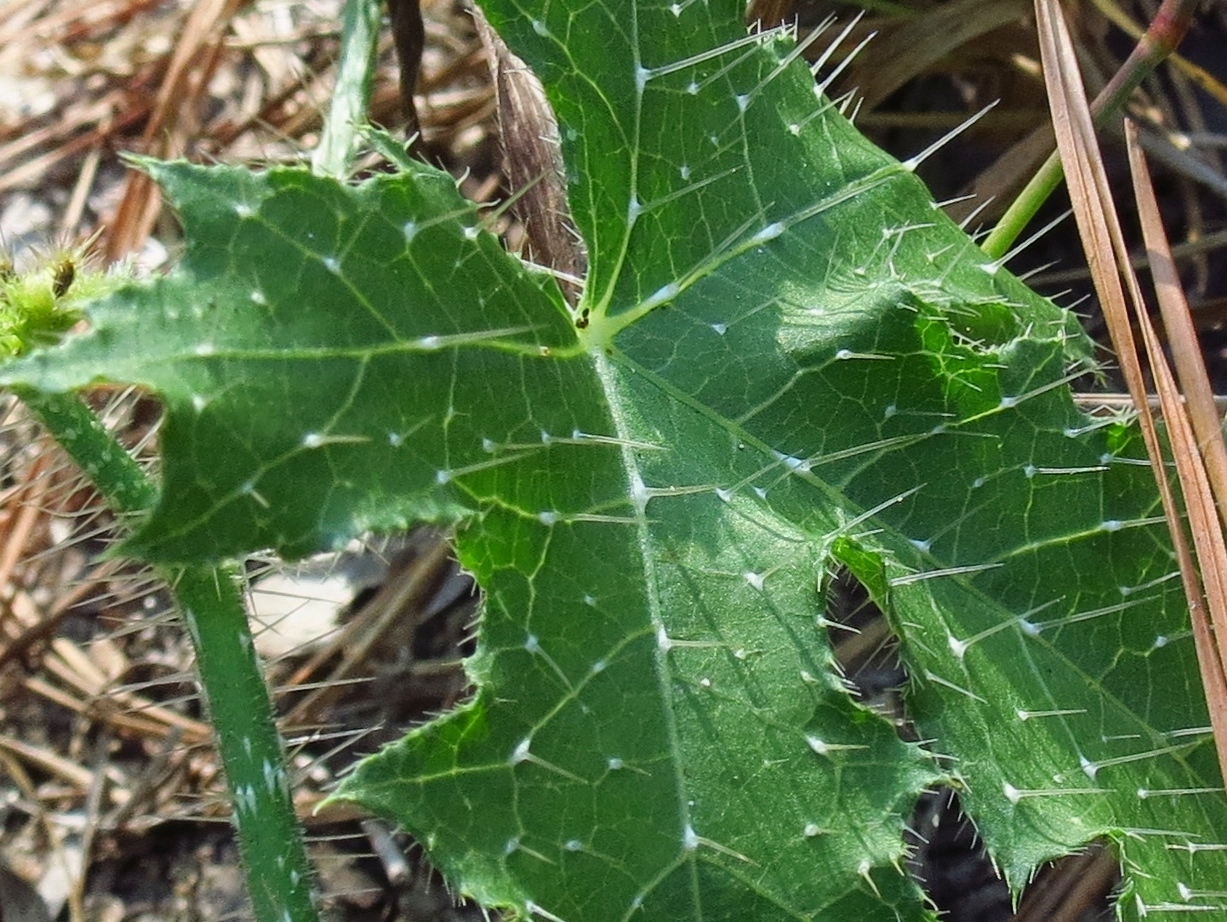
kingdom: Plantae
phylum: Tracheophyta
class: Magnoliopsida
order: Malpighiales
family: Euphorbiaceae
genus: Cnidoscolus
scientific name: Cnidoscolus texanus
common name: Texas bull-nettle
